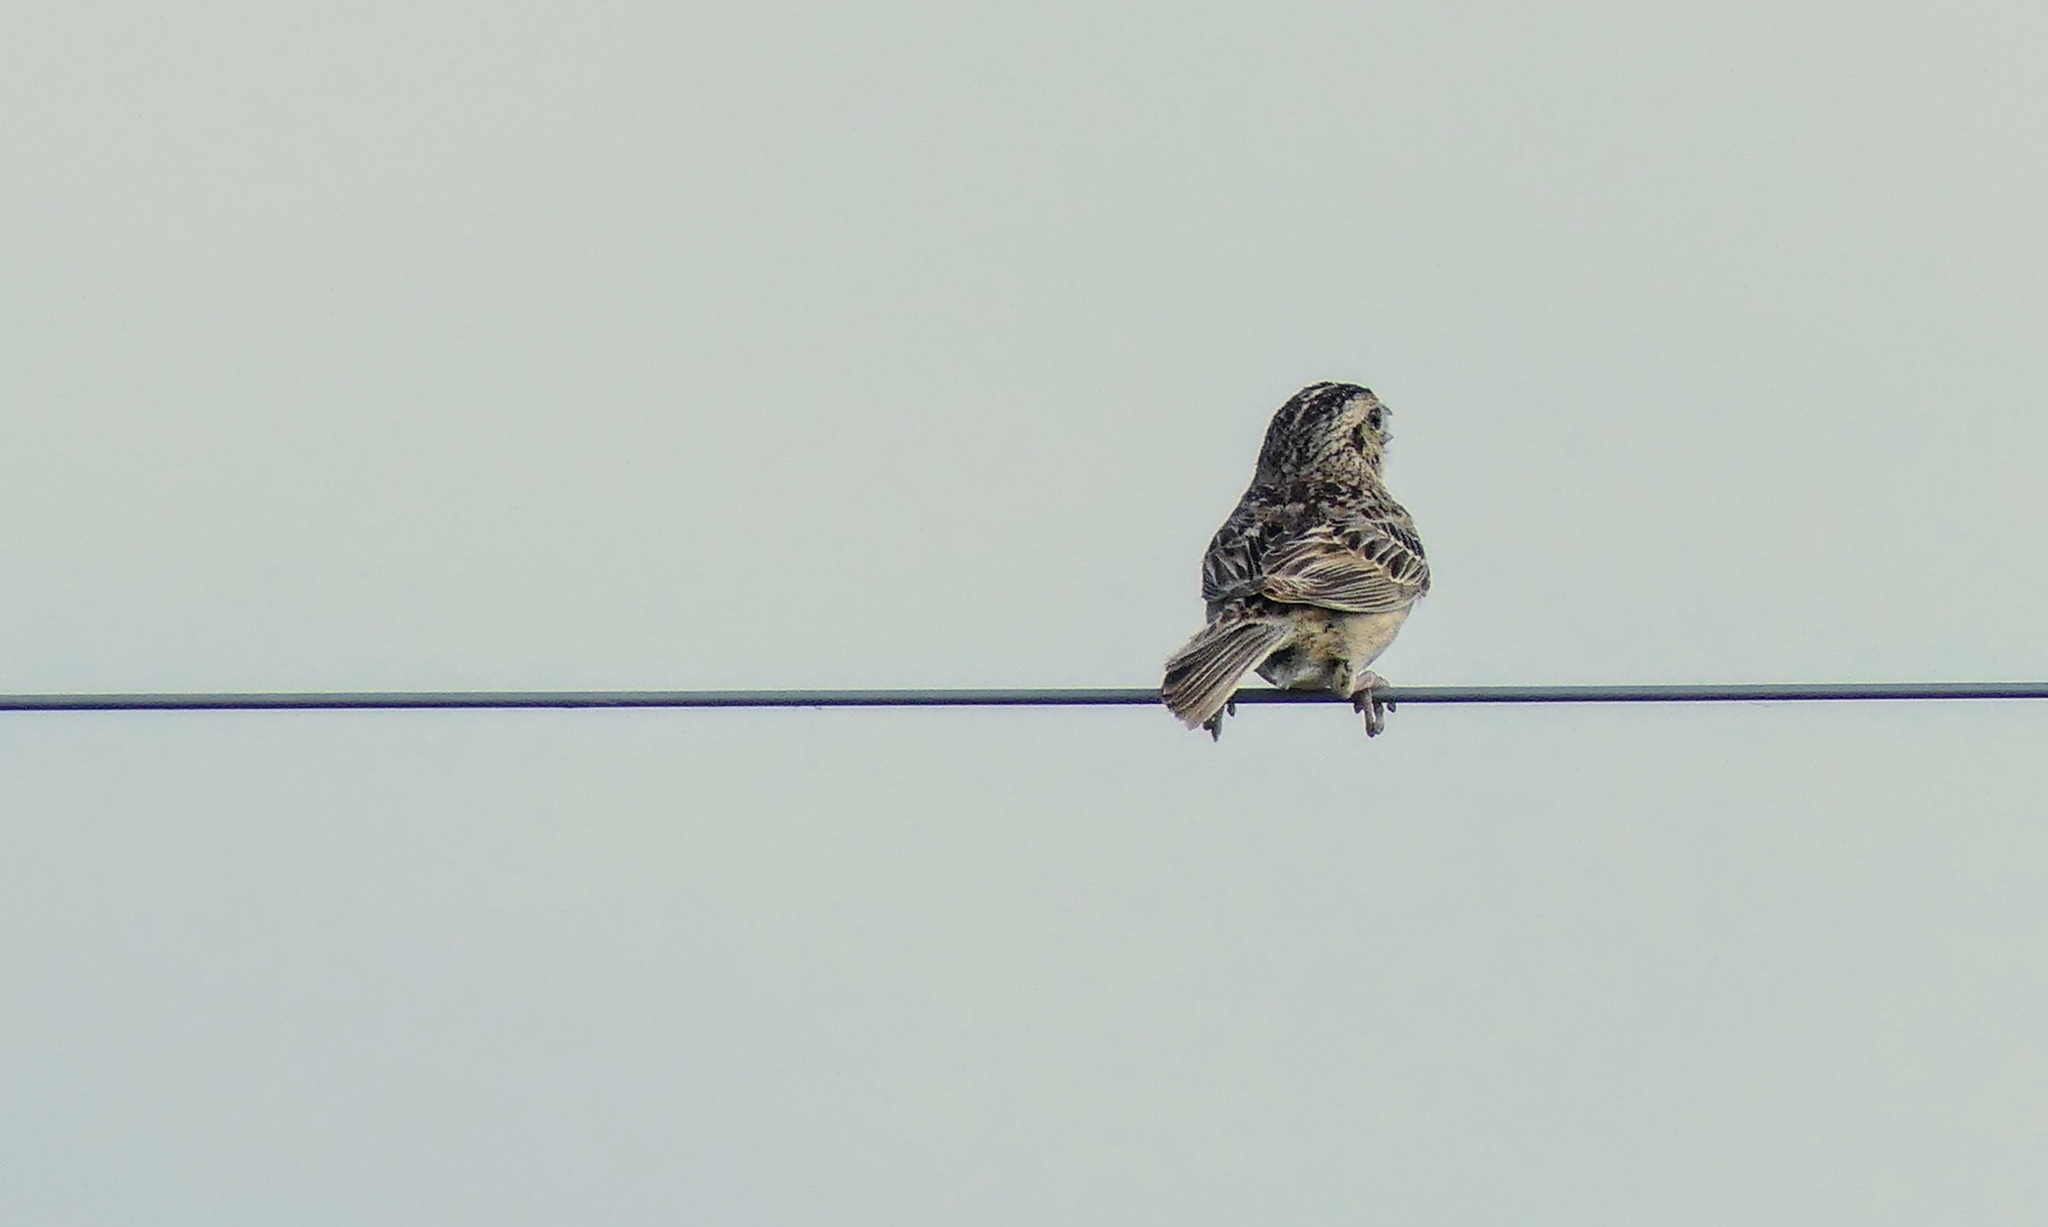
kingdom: Animalia
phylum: Chordata
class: Aves
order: Passeriformes
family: Passerellidae
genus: Ammodramus
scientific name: Ammodramus savannarum
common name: Grasshopper sparrow
